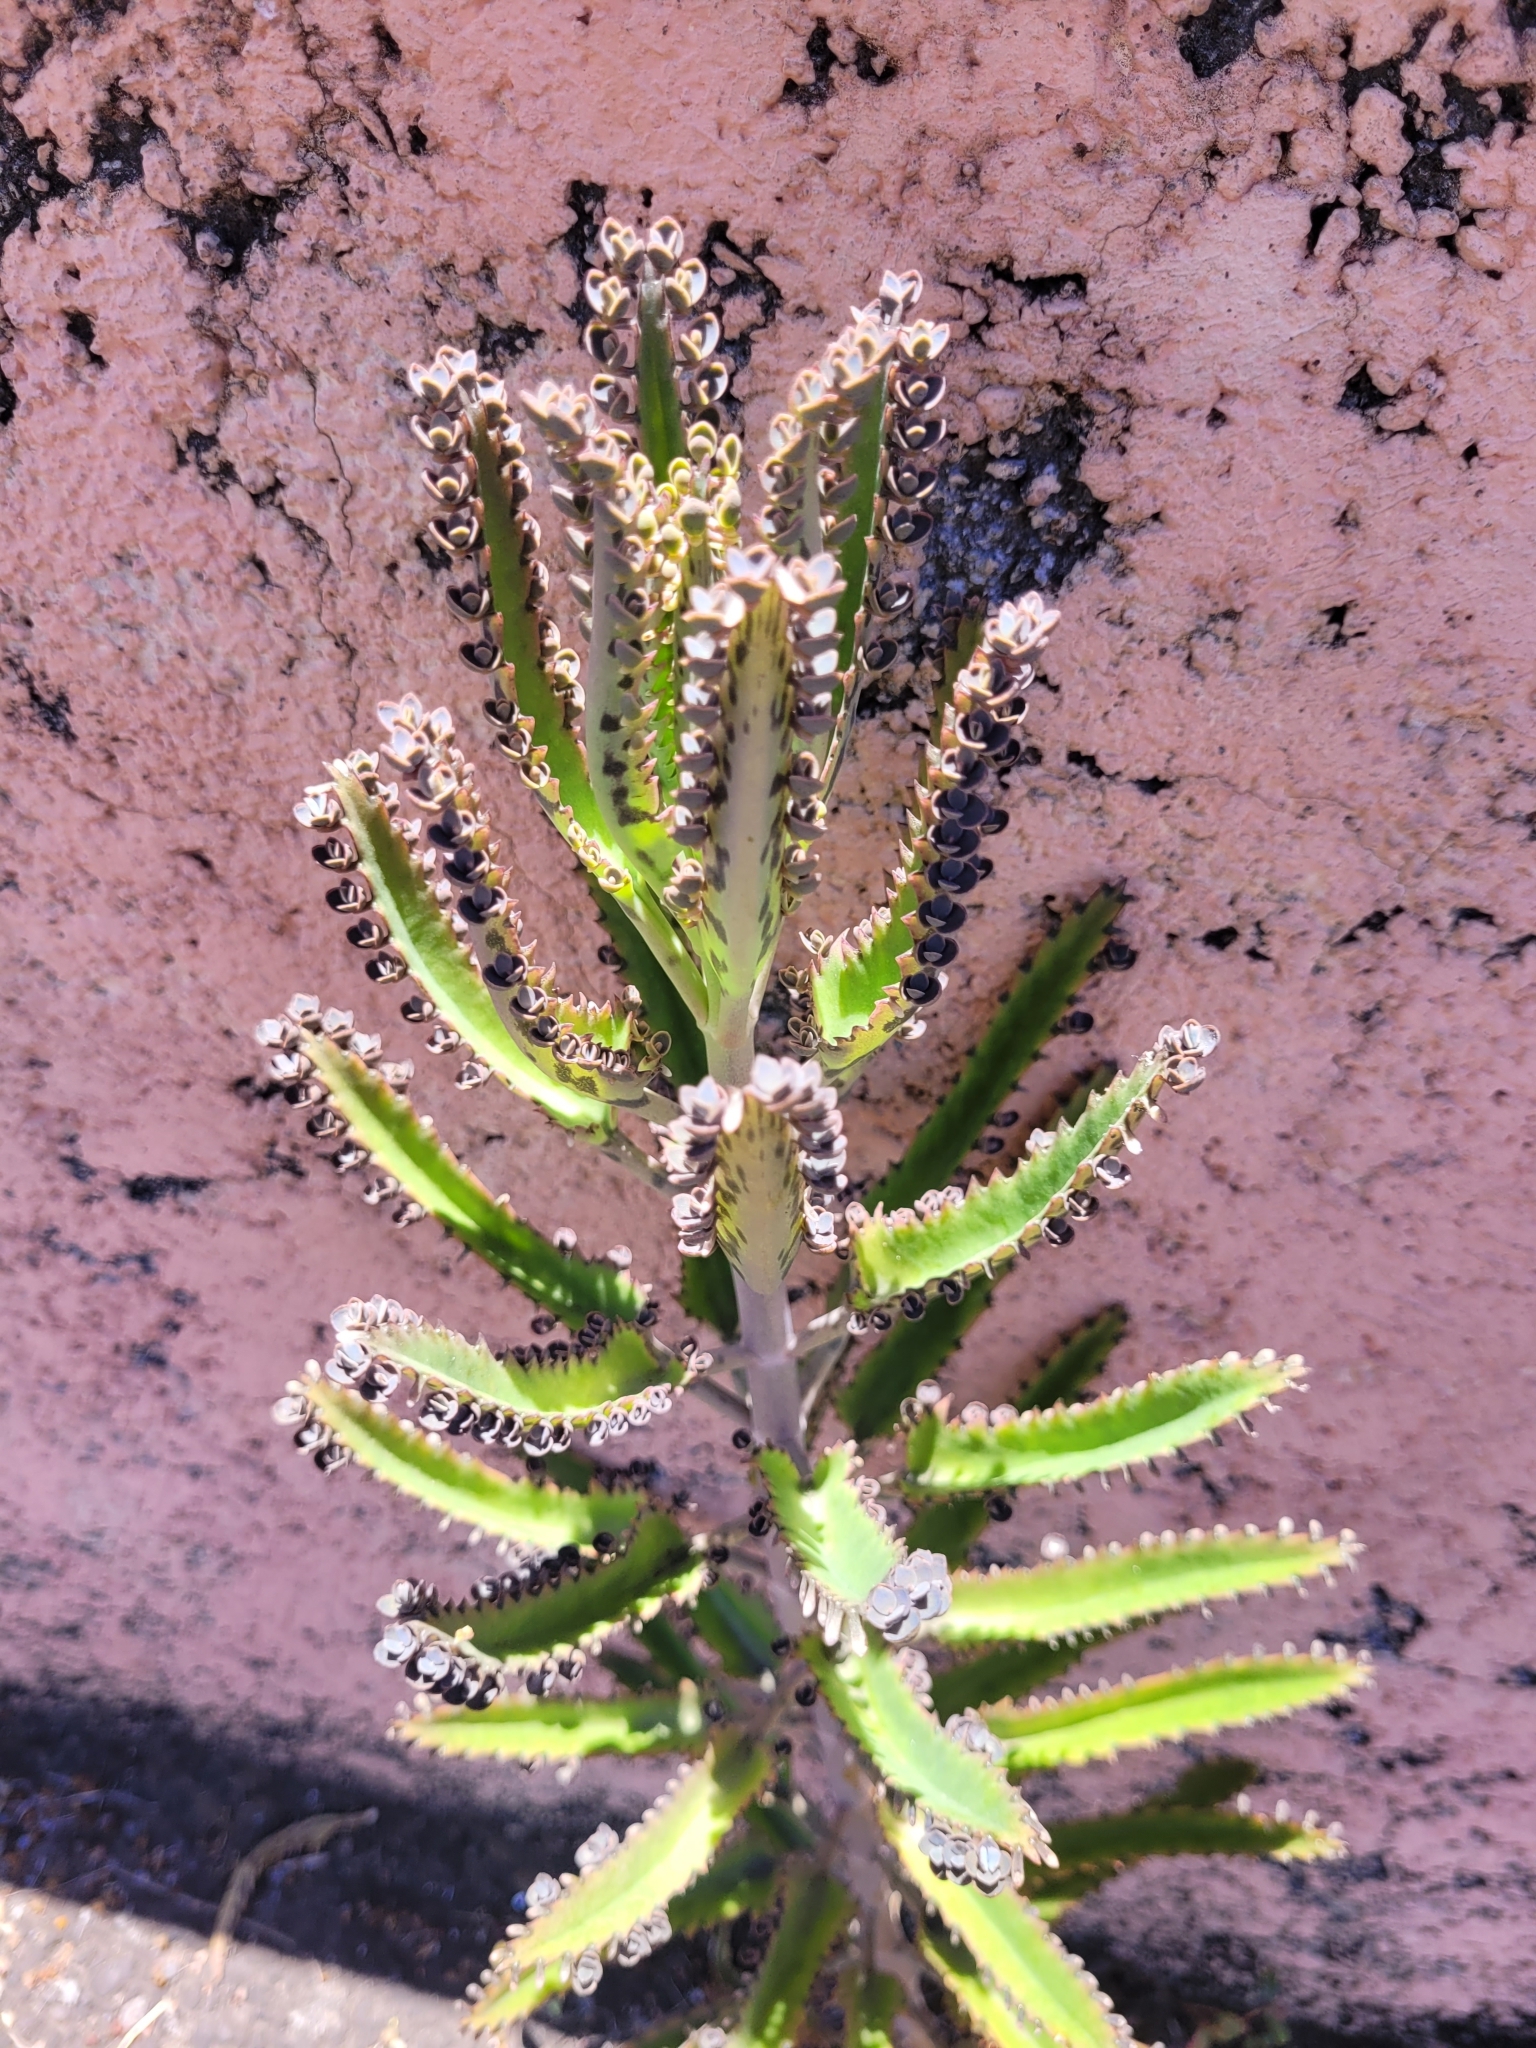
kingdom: Plantae
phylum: Tracheophyta
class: Magnoliopsida
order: Saxifragales
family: Crassulaceae
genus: Kalanchoe
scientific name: Kalanchoe houghtonii
